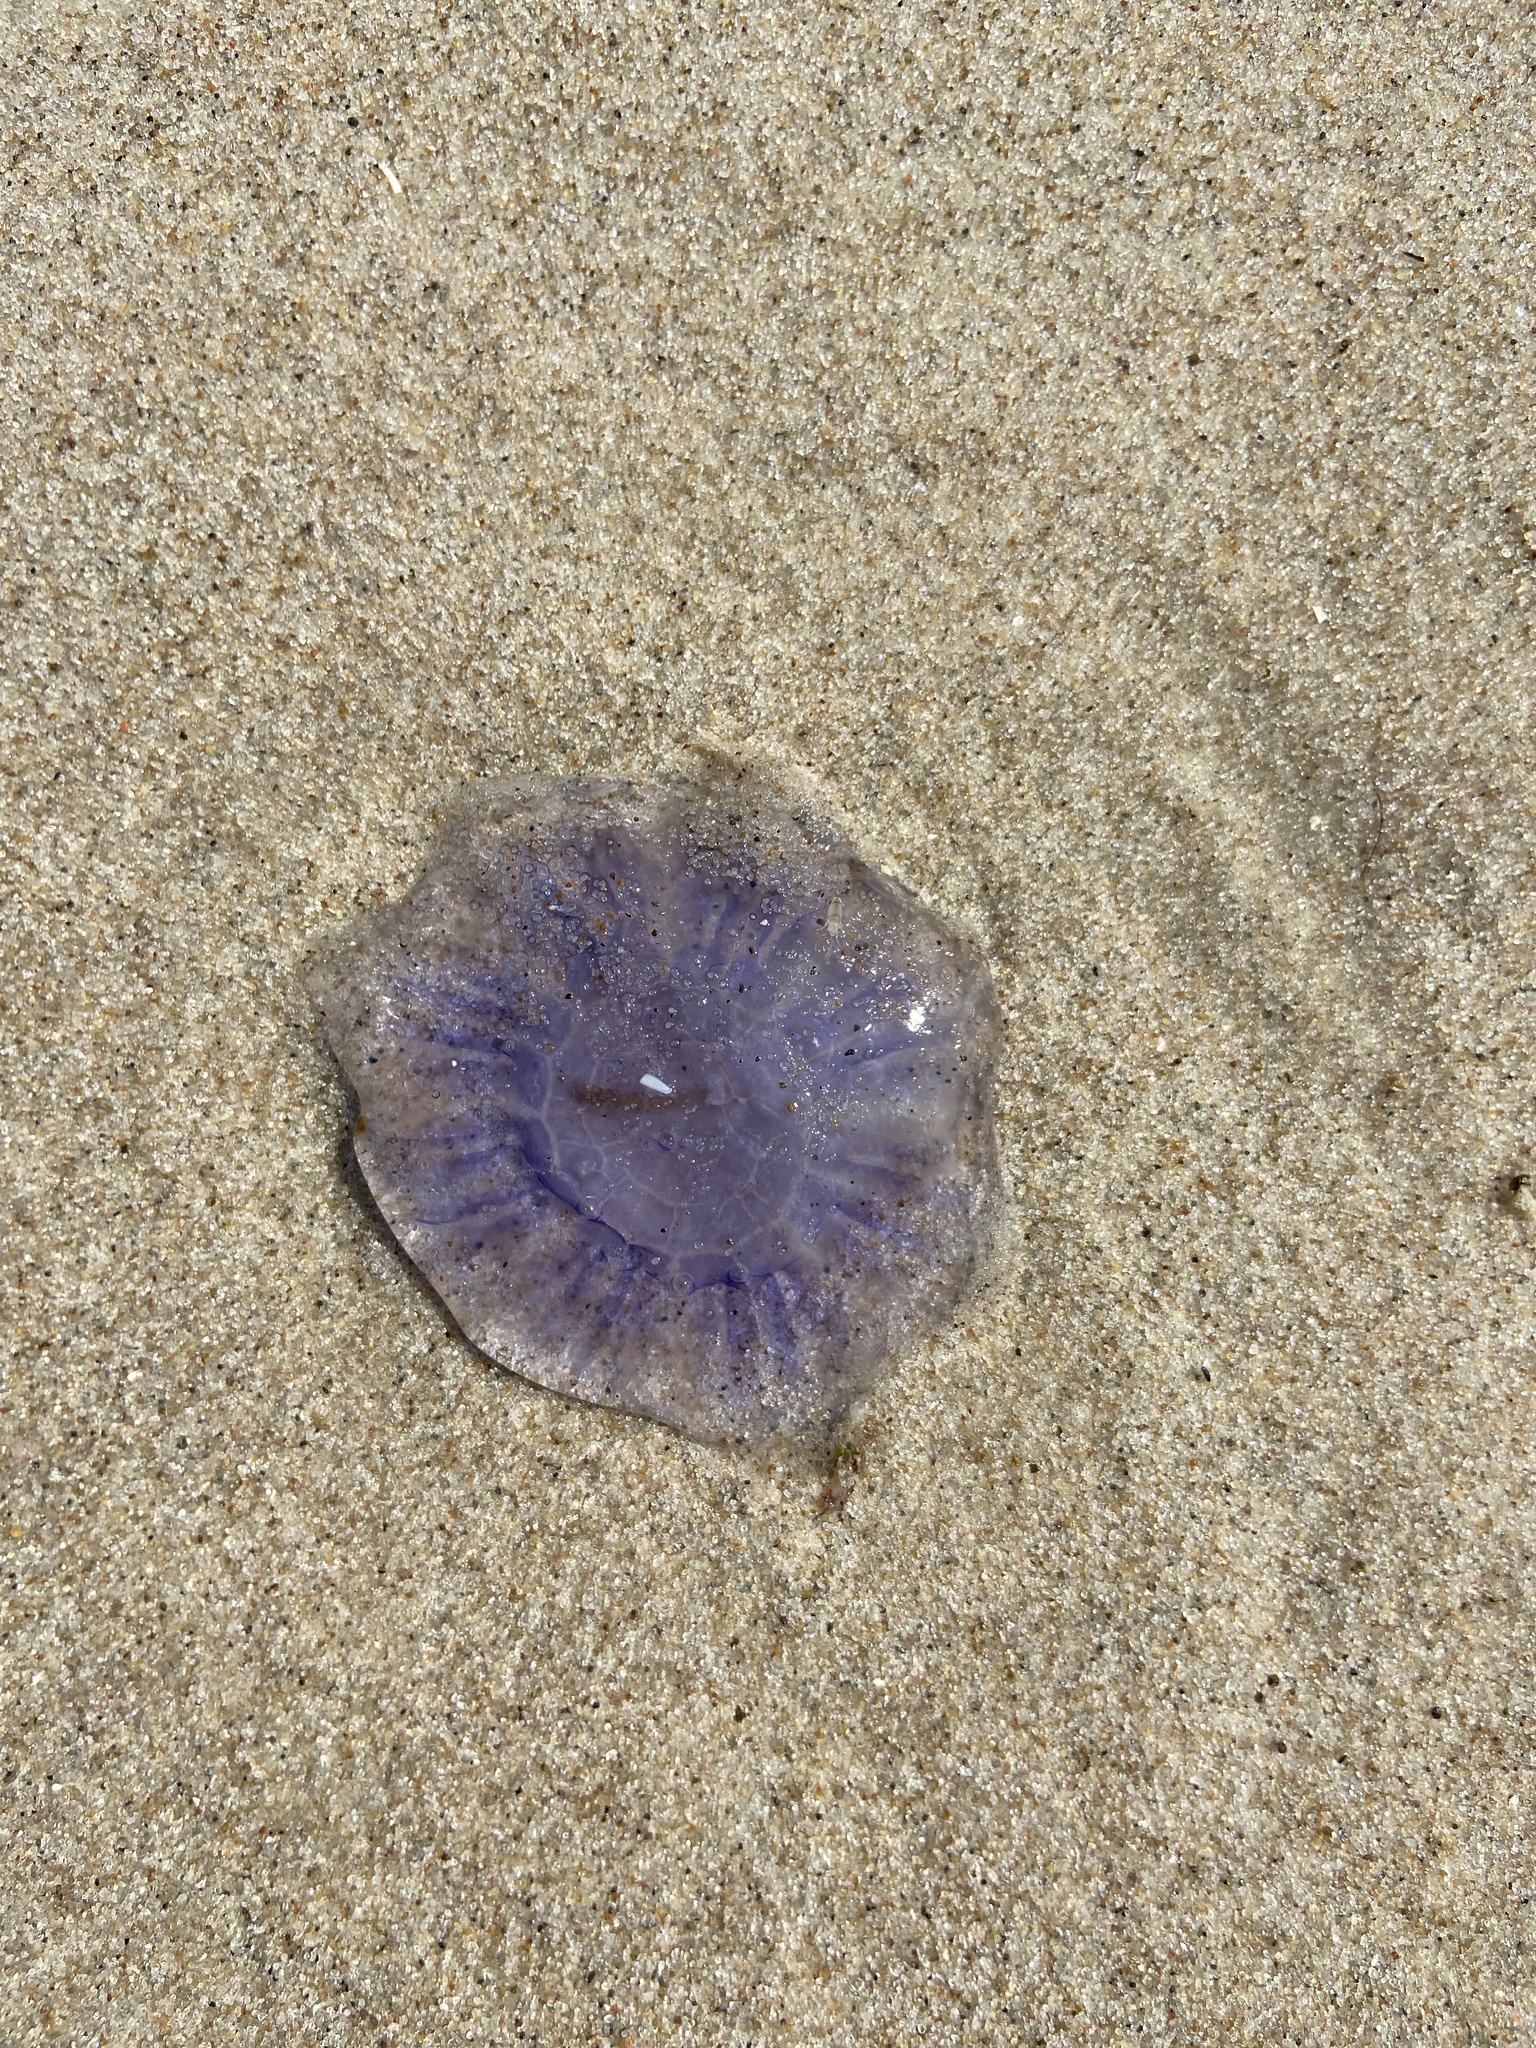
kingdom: Animalia
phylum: Cnidaria
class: Scyphozoa
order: Semaeostomeae
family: Cyaneidae
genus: Cyanea
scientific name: Cyanea lamarckii
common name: Blue jellyfish
